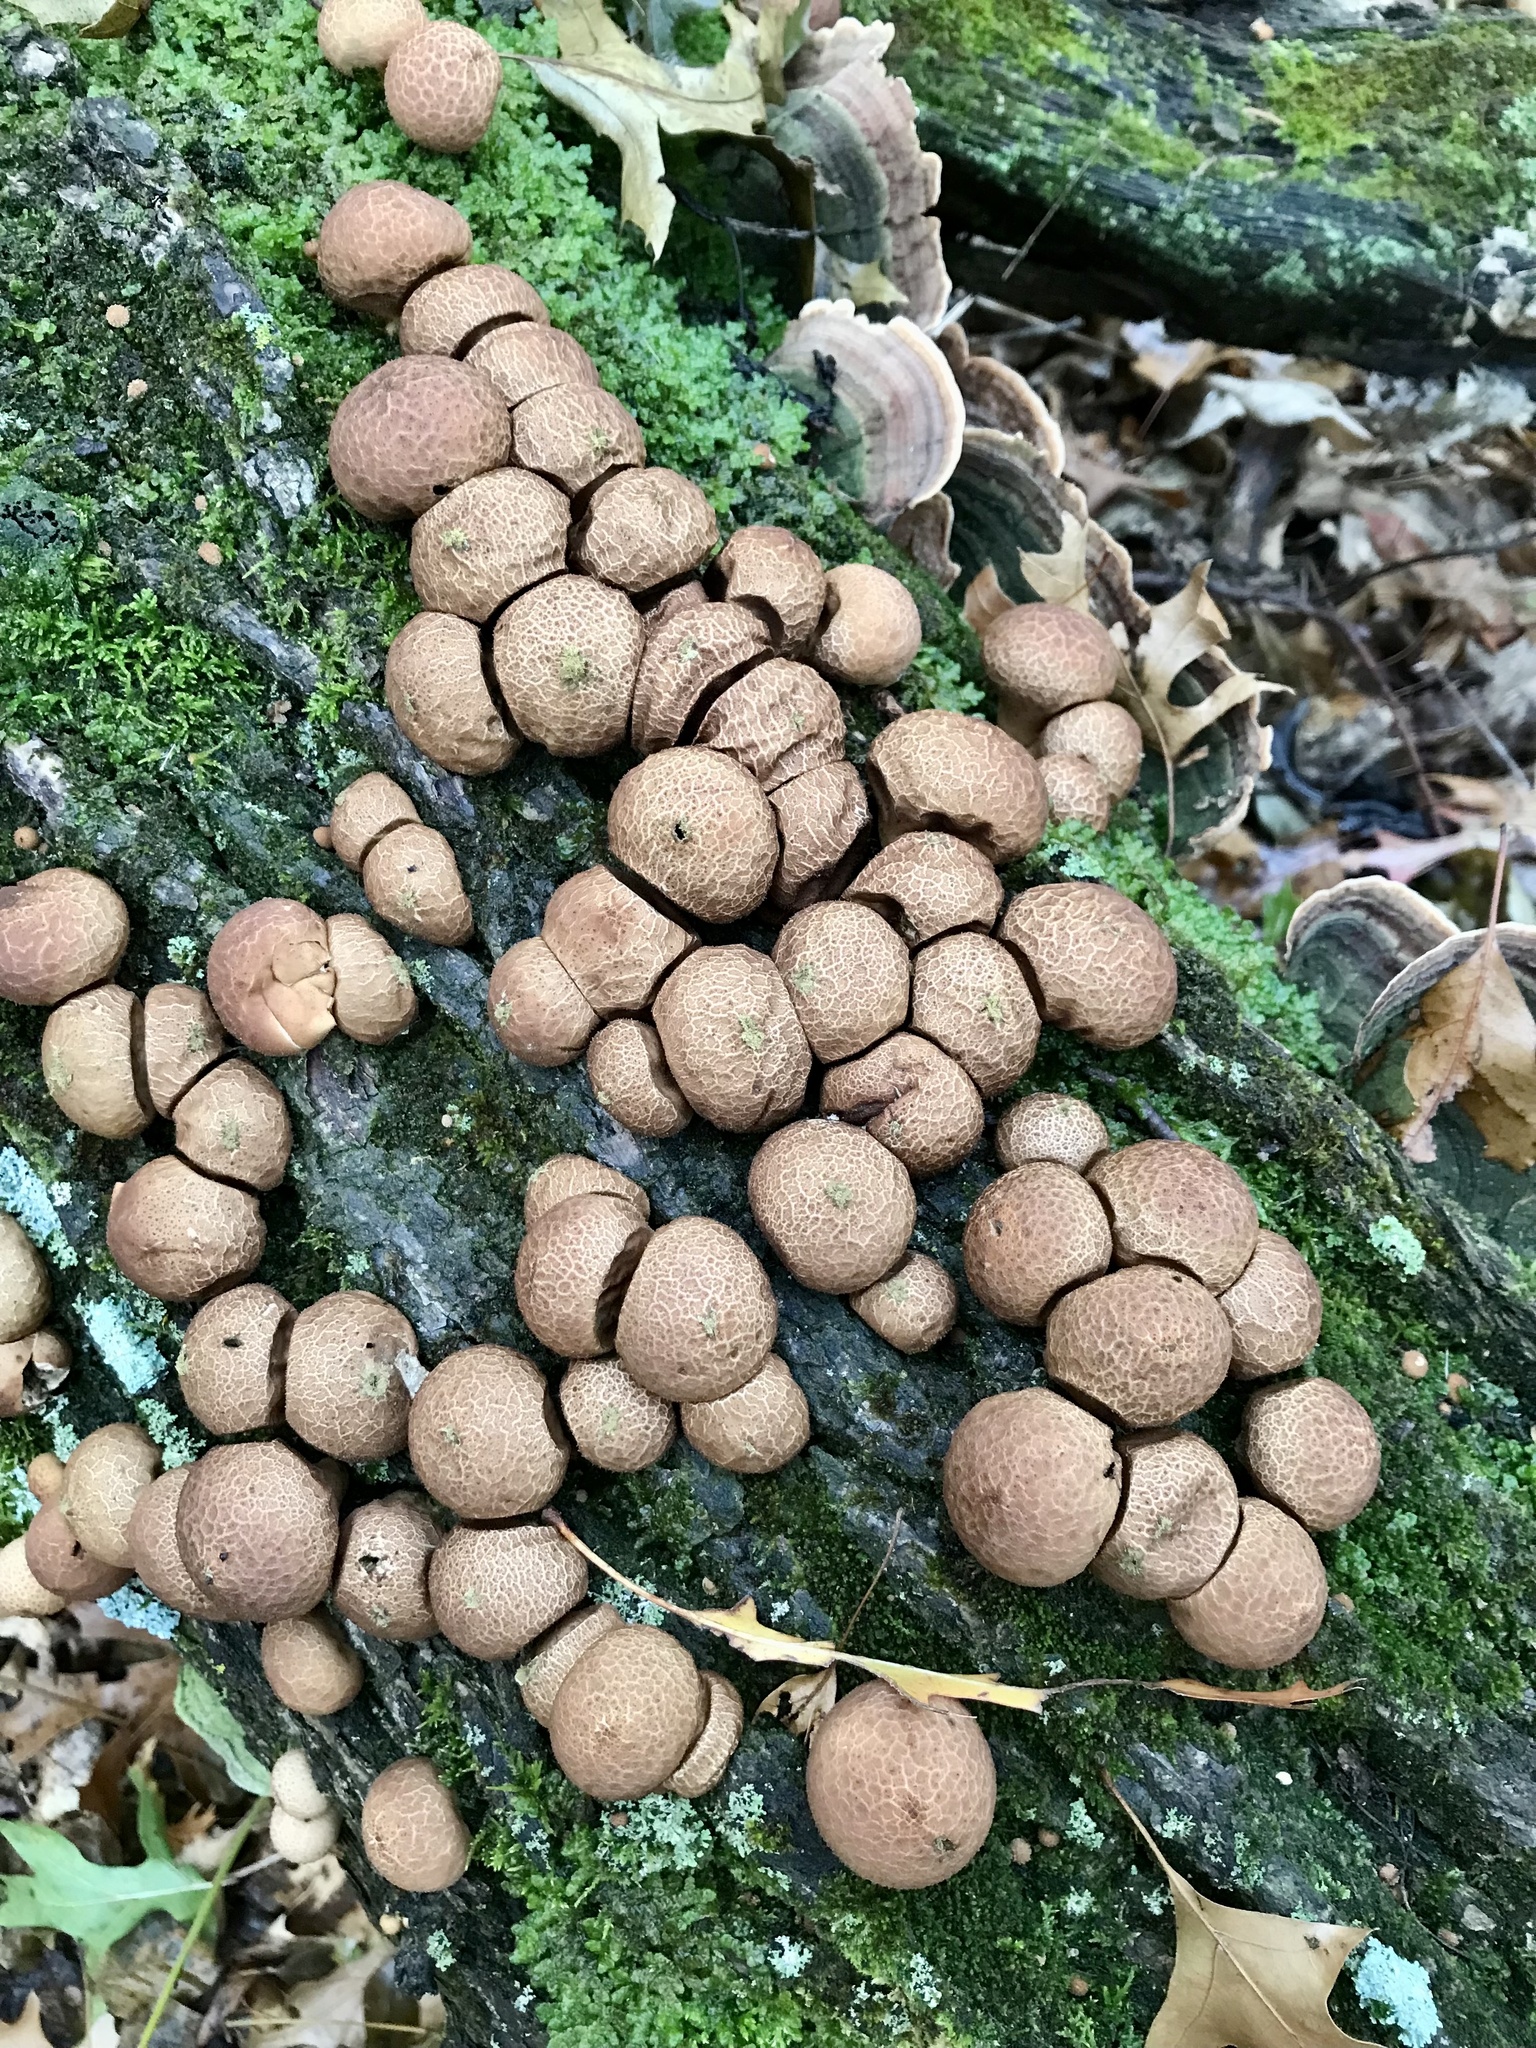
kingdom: Fungi
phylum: Basidiomycota
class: Agaricomycetes
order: Agaricales
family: Lycoperdaceae
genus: Apioperdon
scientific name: Apioperdon pyriforme
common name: Pear-shaped puffball
